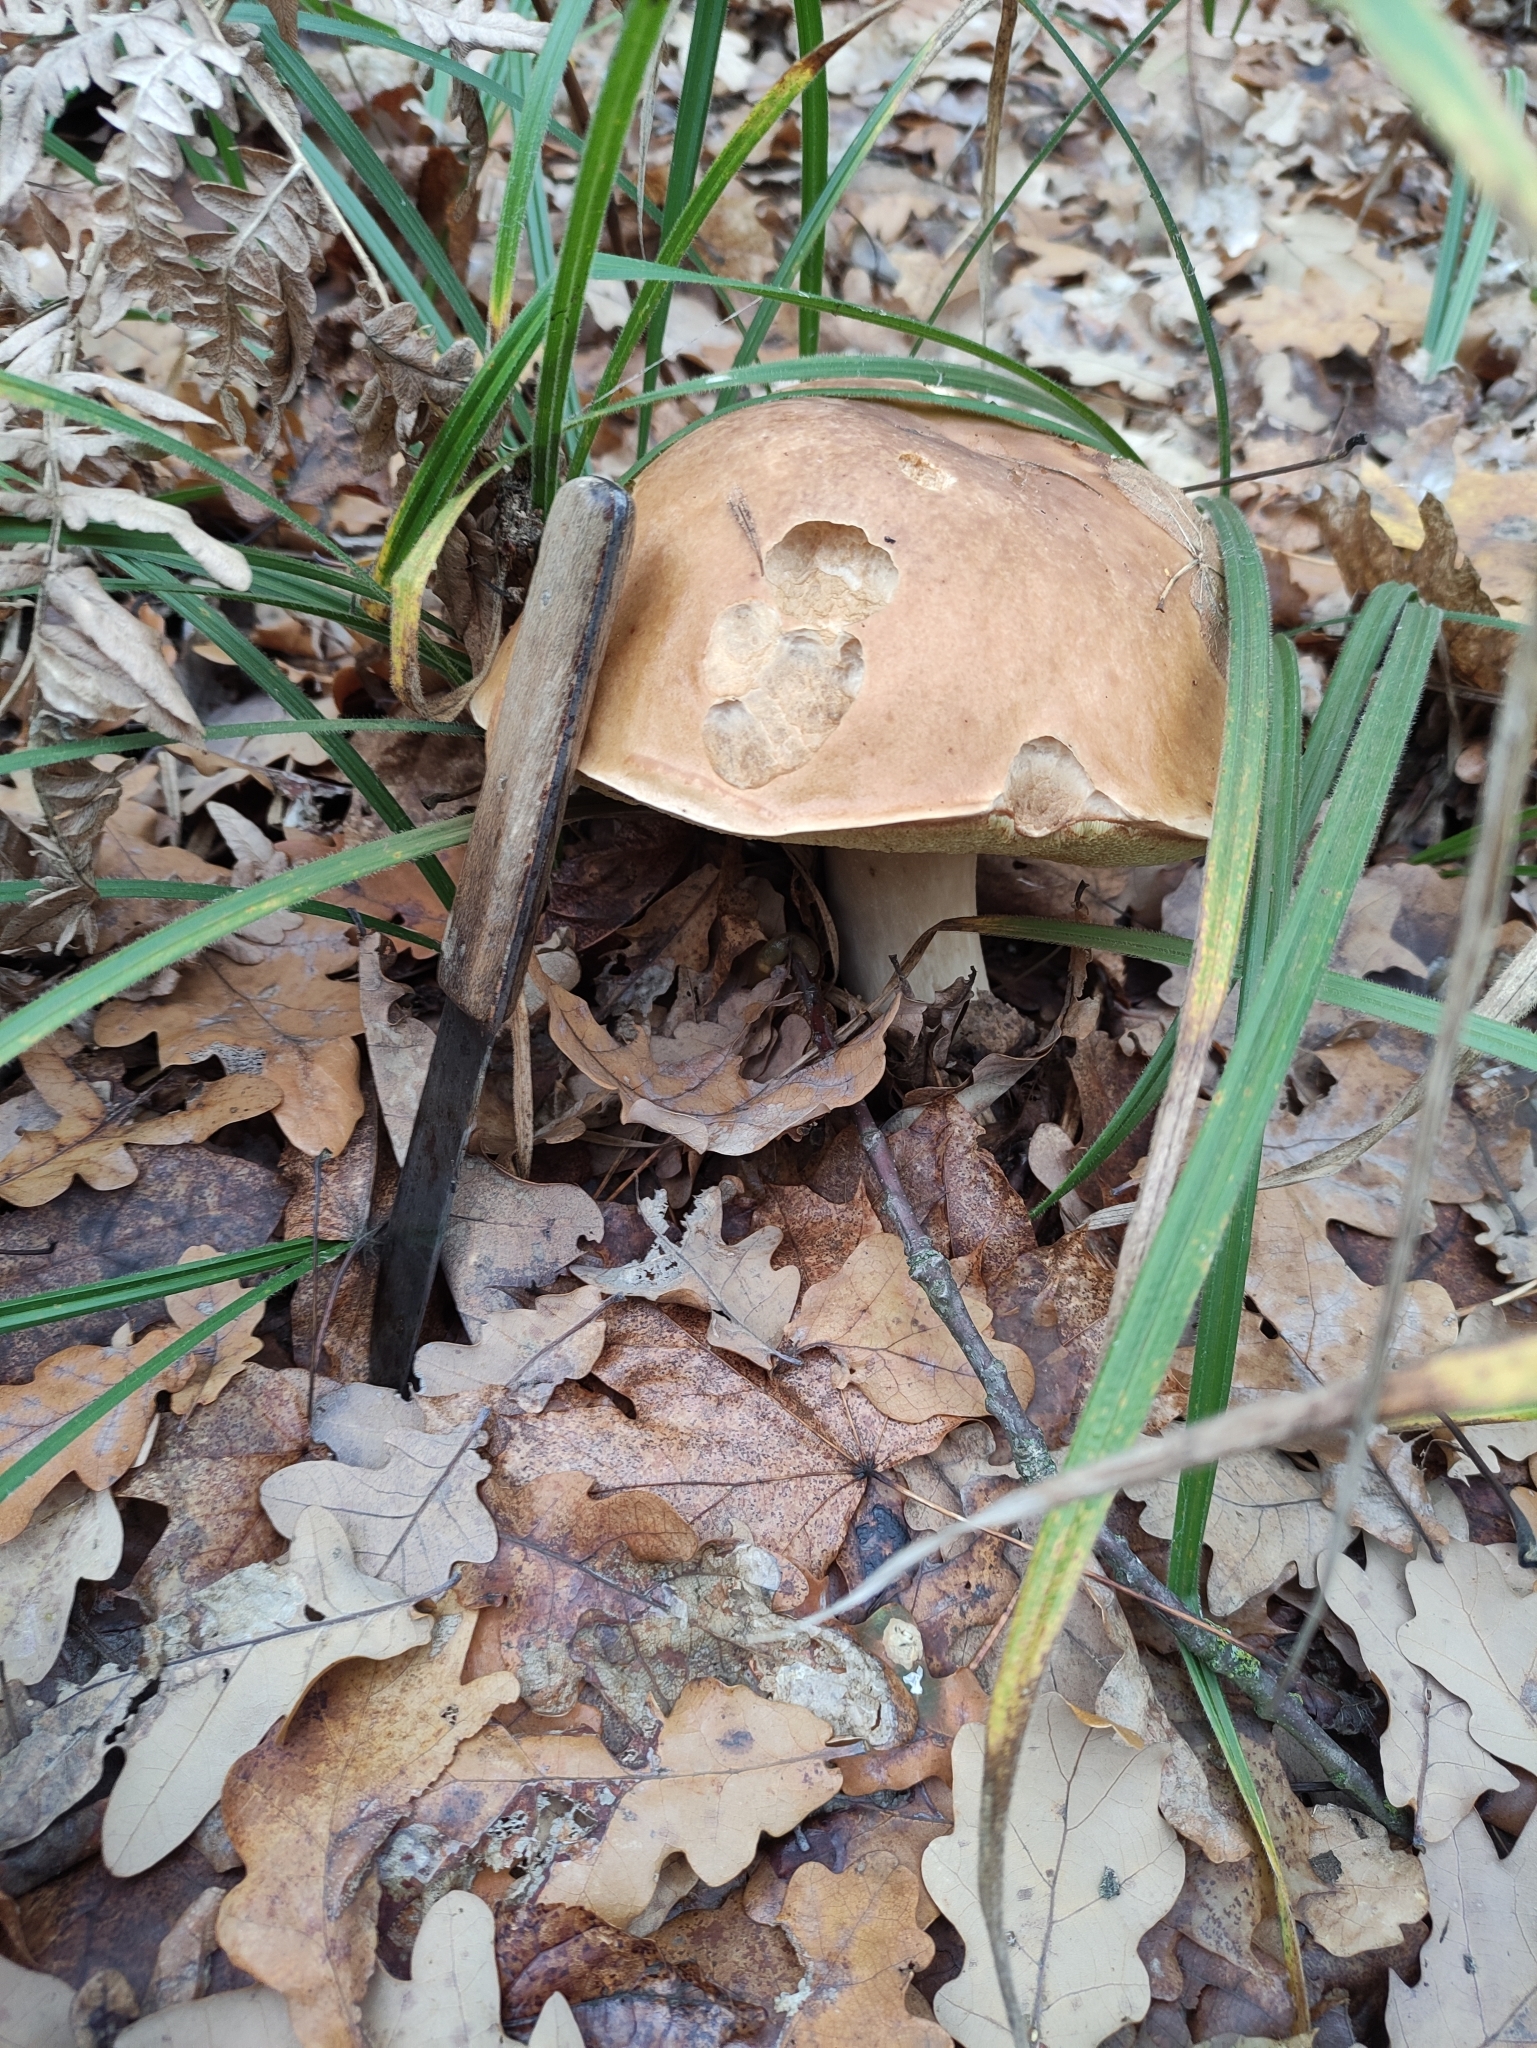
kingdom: Fungi
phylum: Basidiomycota
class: Agaricomycetes
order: Boletales
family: Boletaceae
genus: Boletus
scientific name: Boletus edulis
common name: Cep
